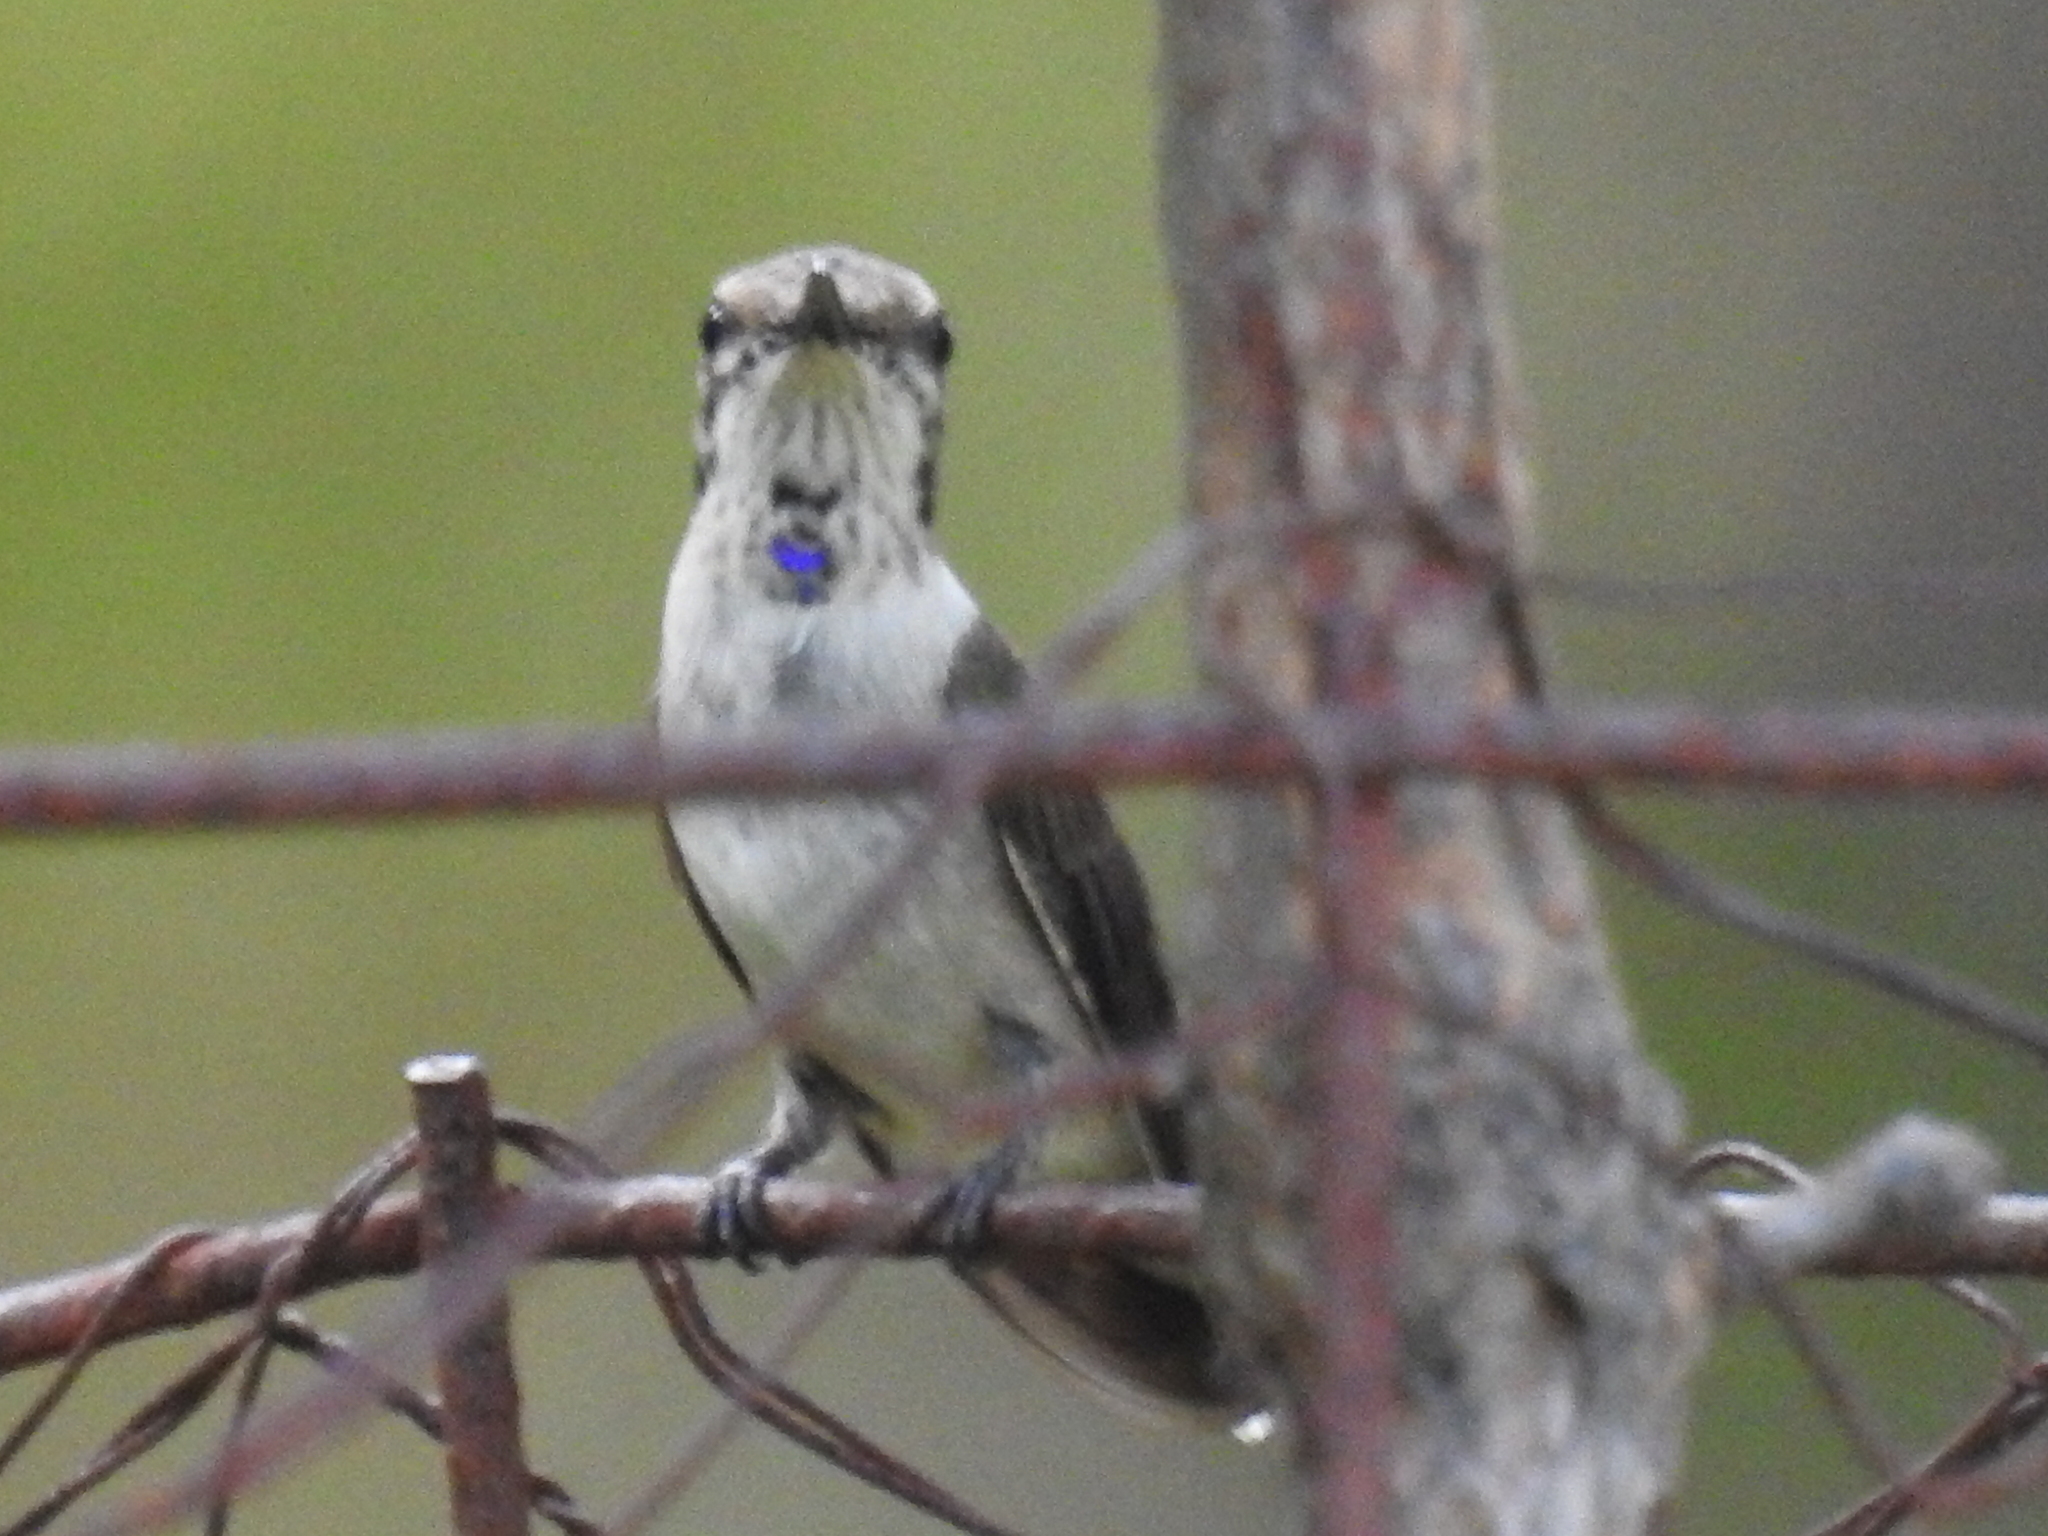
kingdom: Animalia
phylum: Chordata
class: Aves
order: Apodiformes
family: Trochilidae
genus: Archilochus
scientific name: Archilochus alexandri
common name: Black-chinned hummingbird
